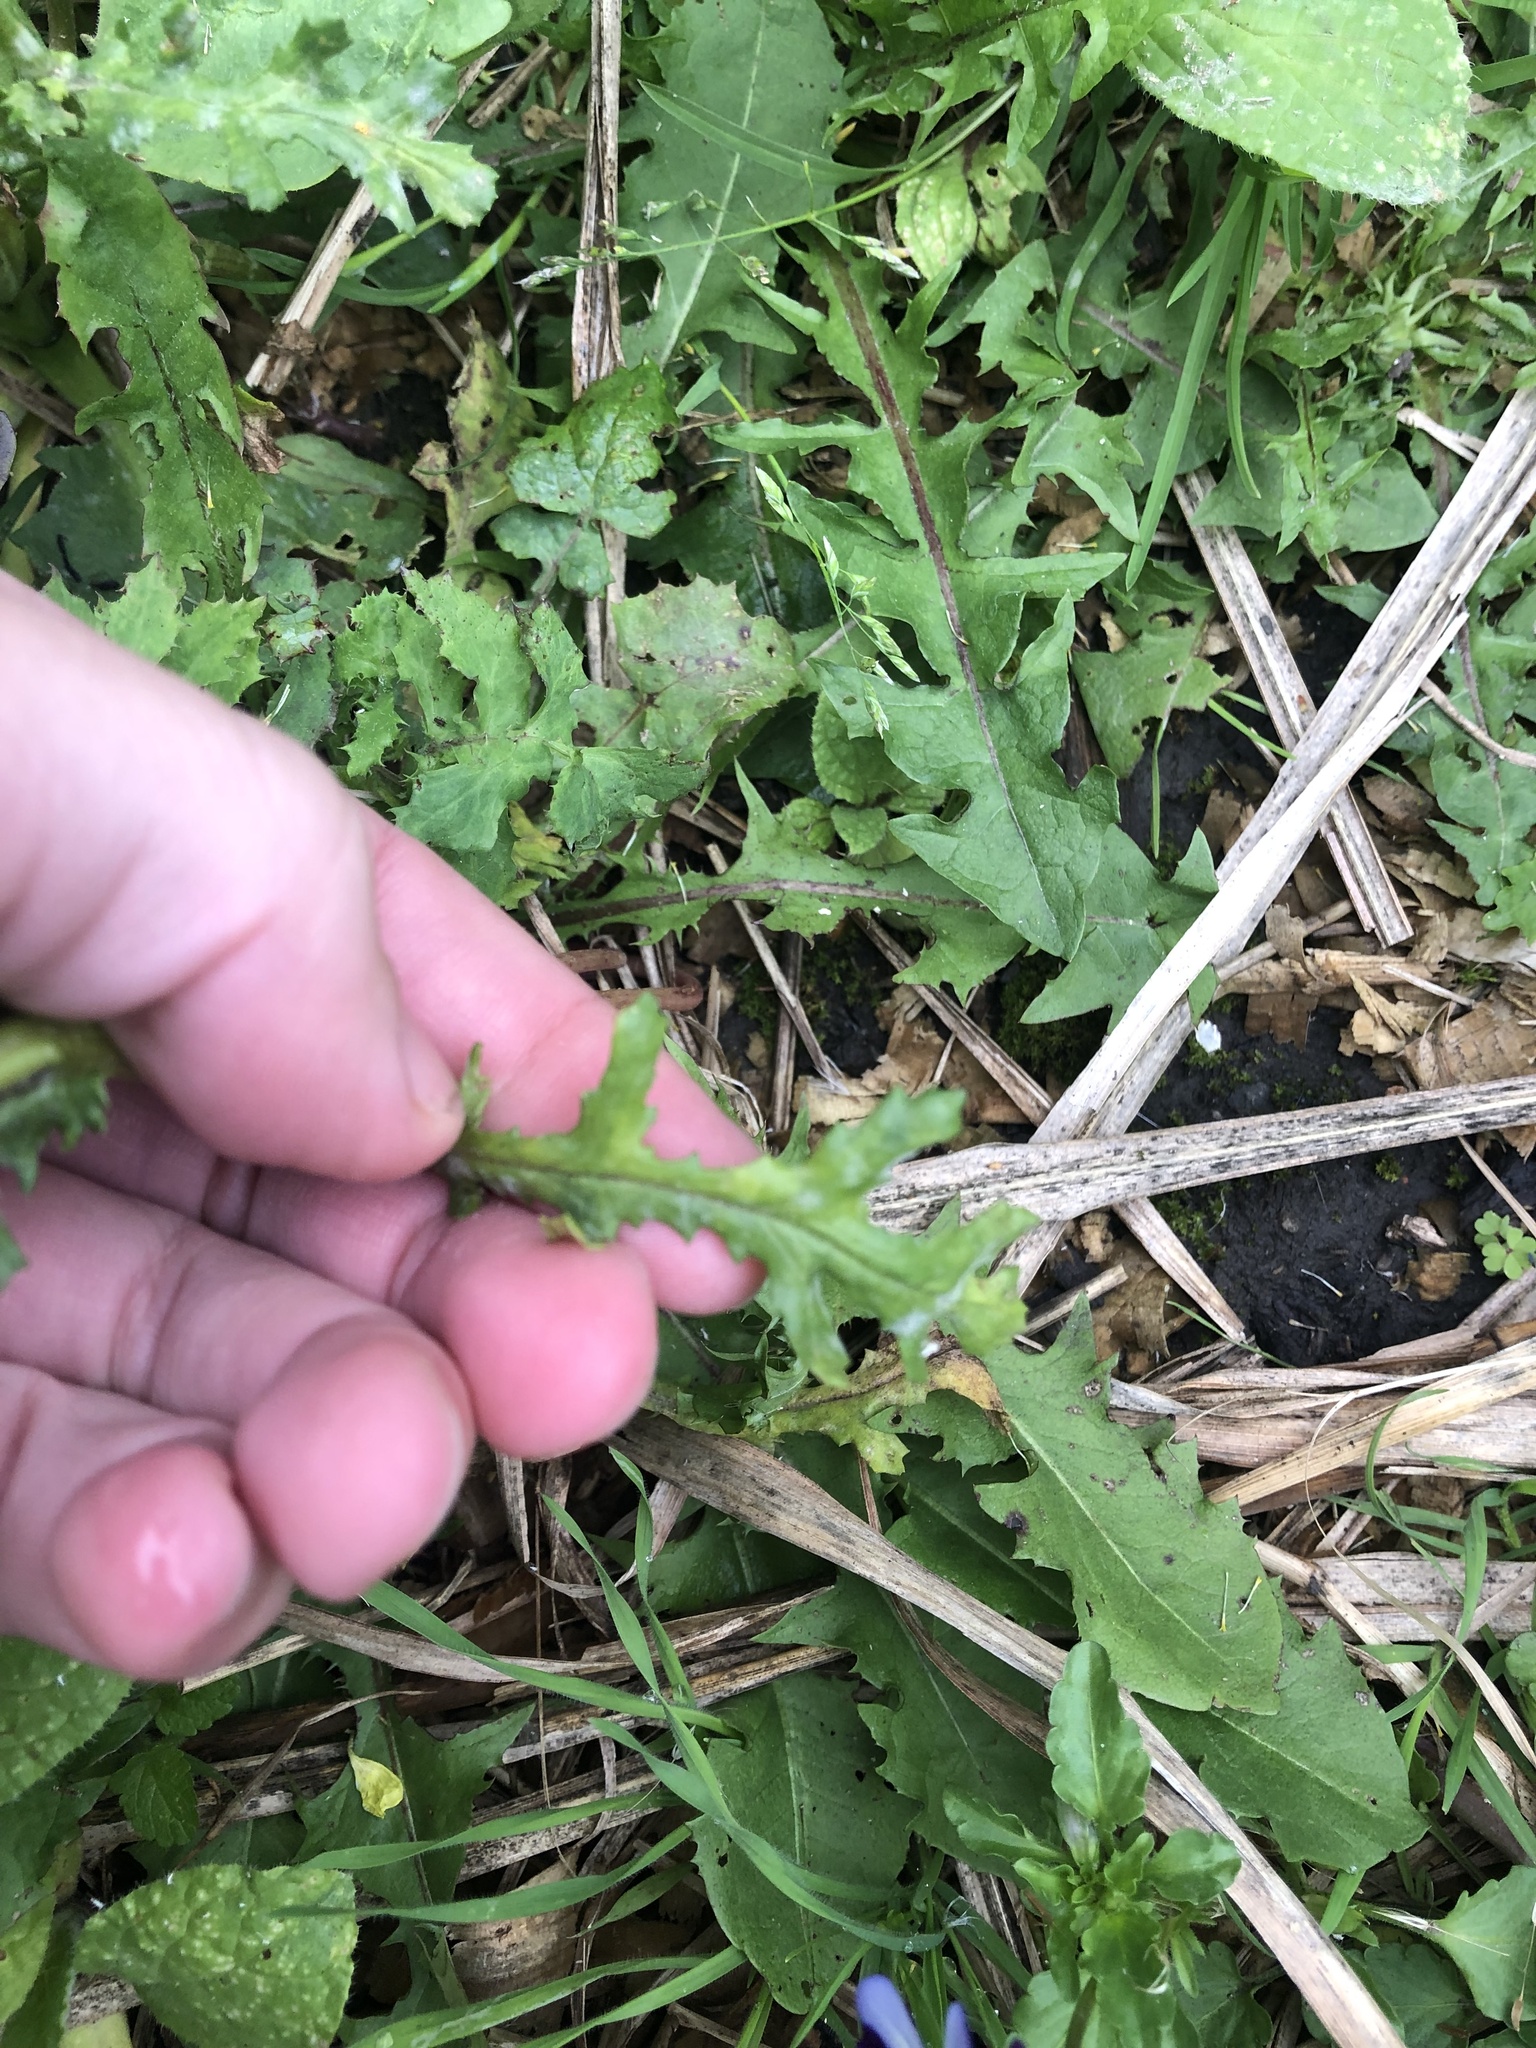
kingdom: Plantae
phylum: Tracheophyta
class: Magnoliopsida
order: Asterales
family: Asteraceae
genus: Senecio
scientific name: Senecio vulgaris
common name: Old-man-in-the-spring
